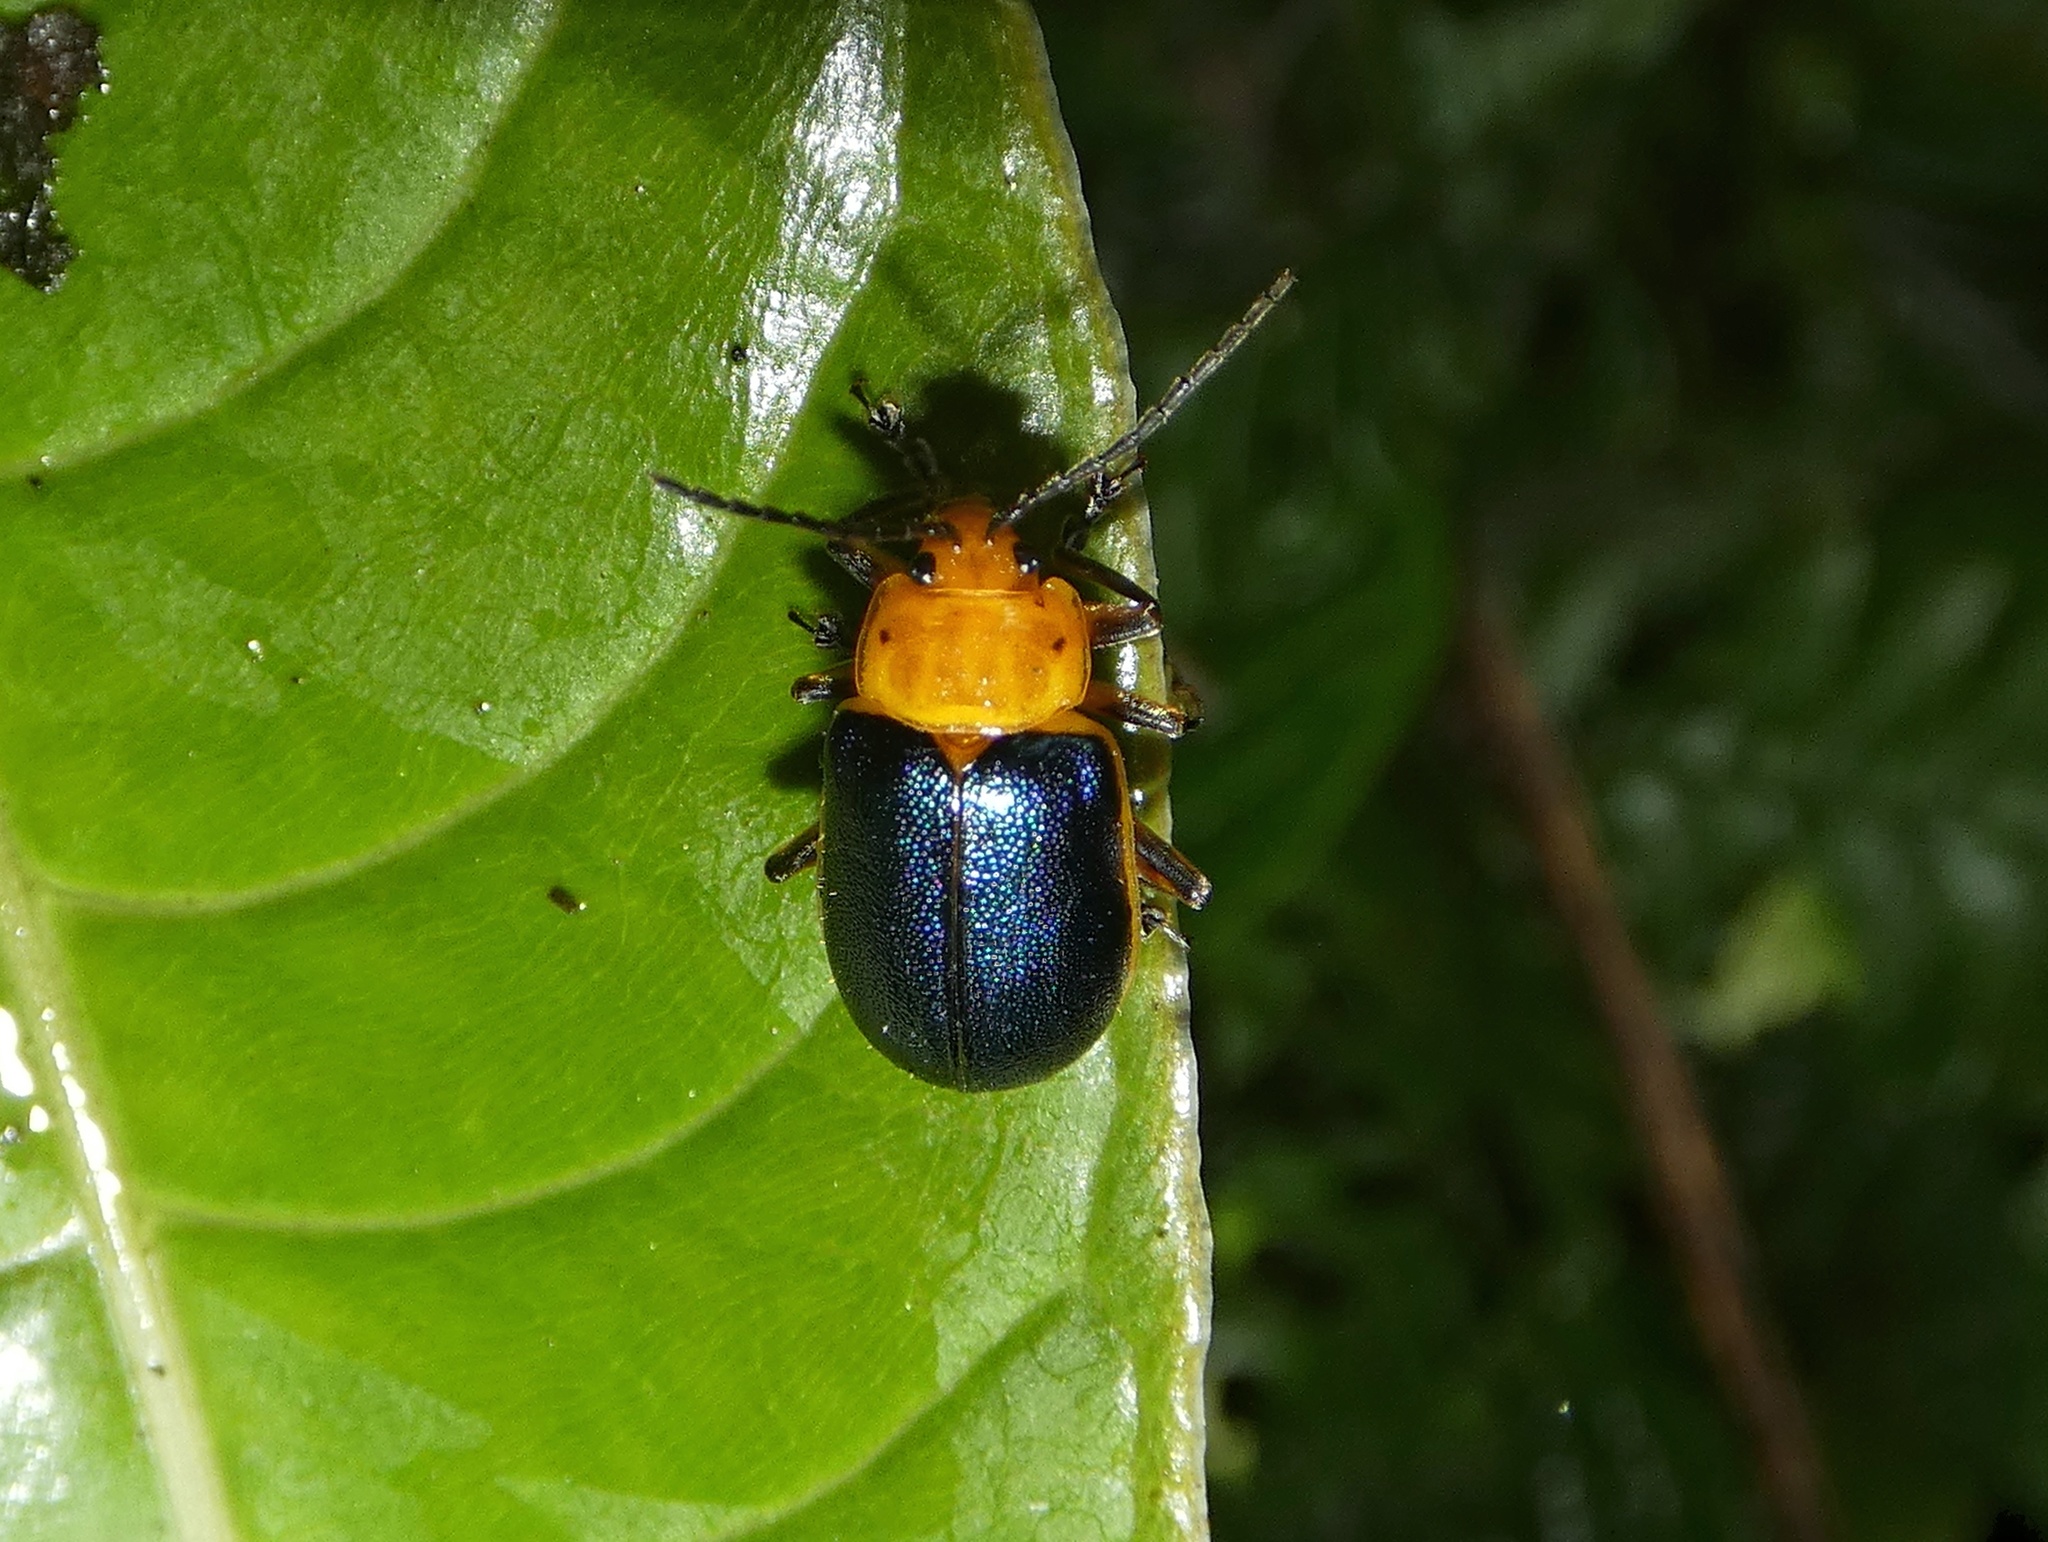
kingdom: Animalia
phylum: Arthropoda
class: Insecta
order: Coleoptera
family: Chrysomelidae
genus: Cacoscelis
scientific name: Cacoscelis marginata
